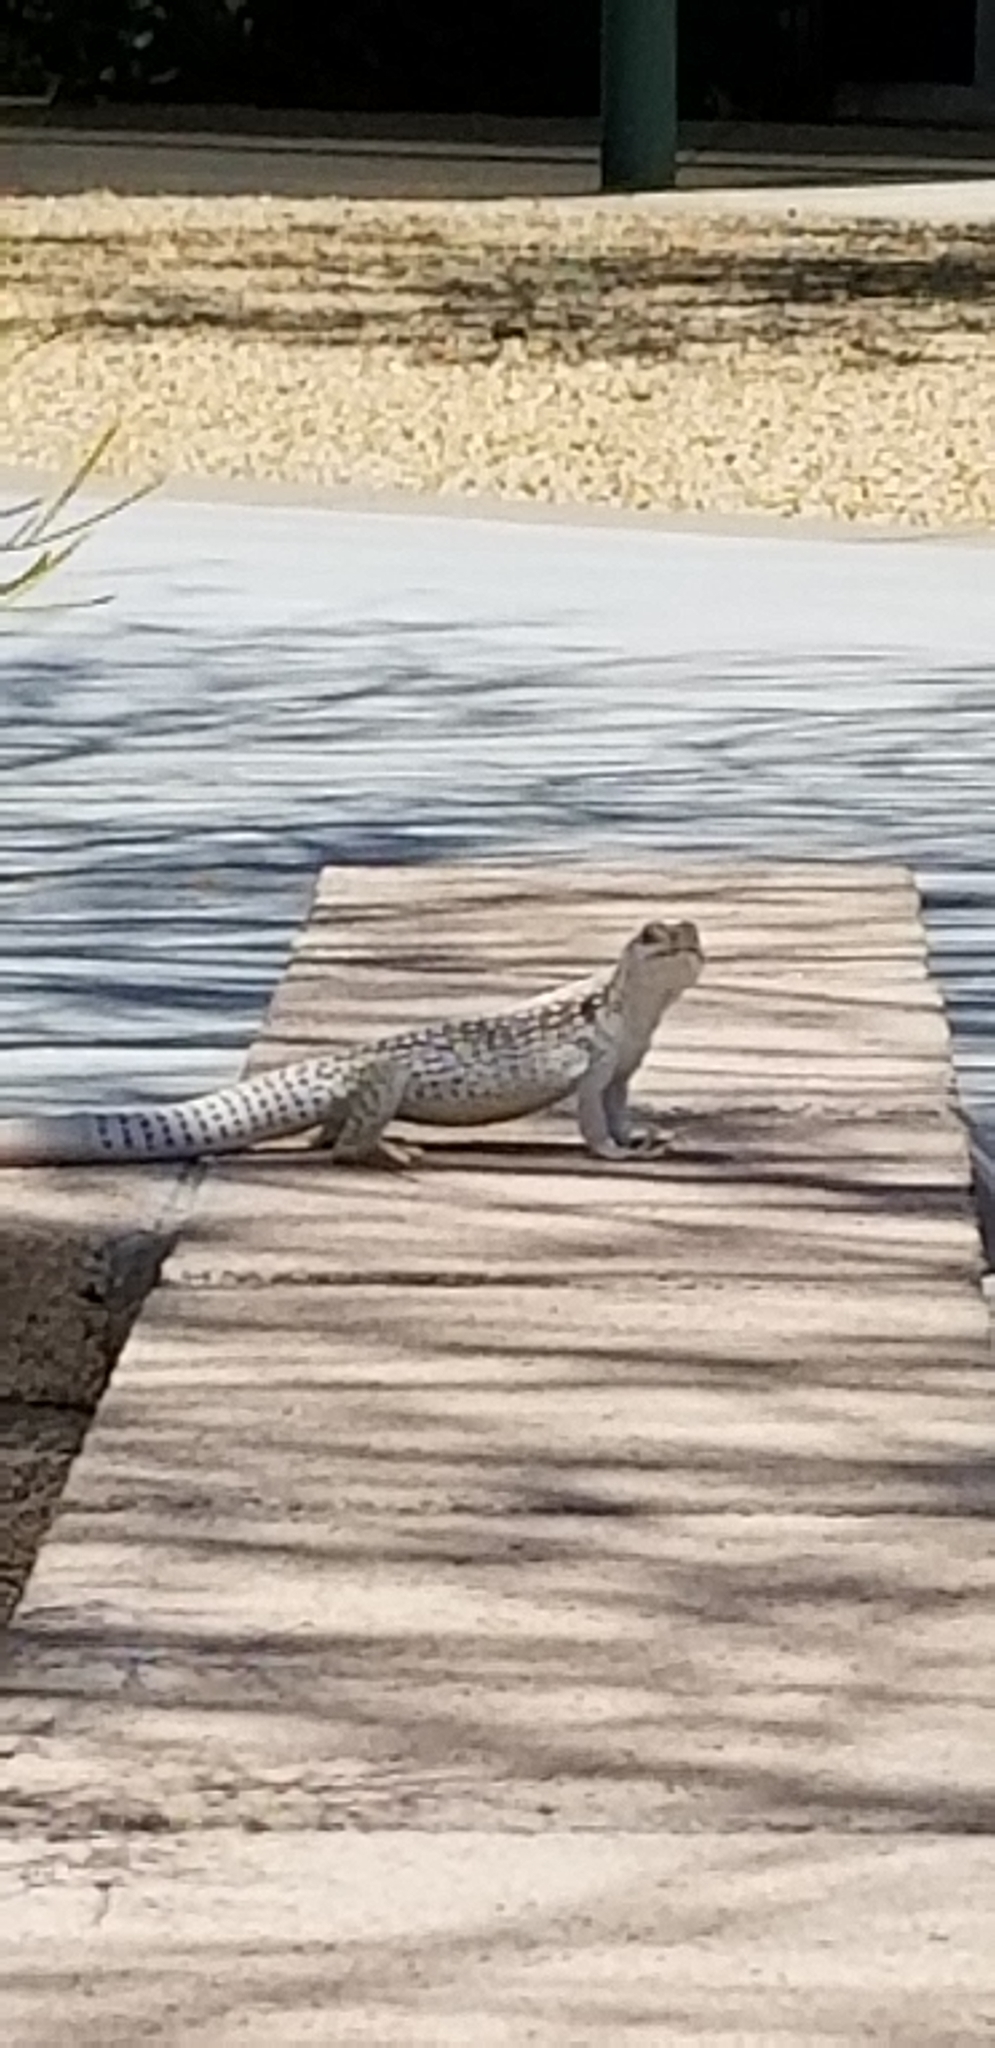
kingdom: Animalia
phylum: Chordata
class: Squamata
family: Iguanidae
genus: Dipsosaurus
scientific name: Dipsosaurus dorsalis
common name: Desert iguana
